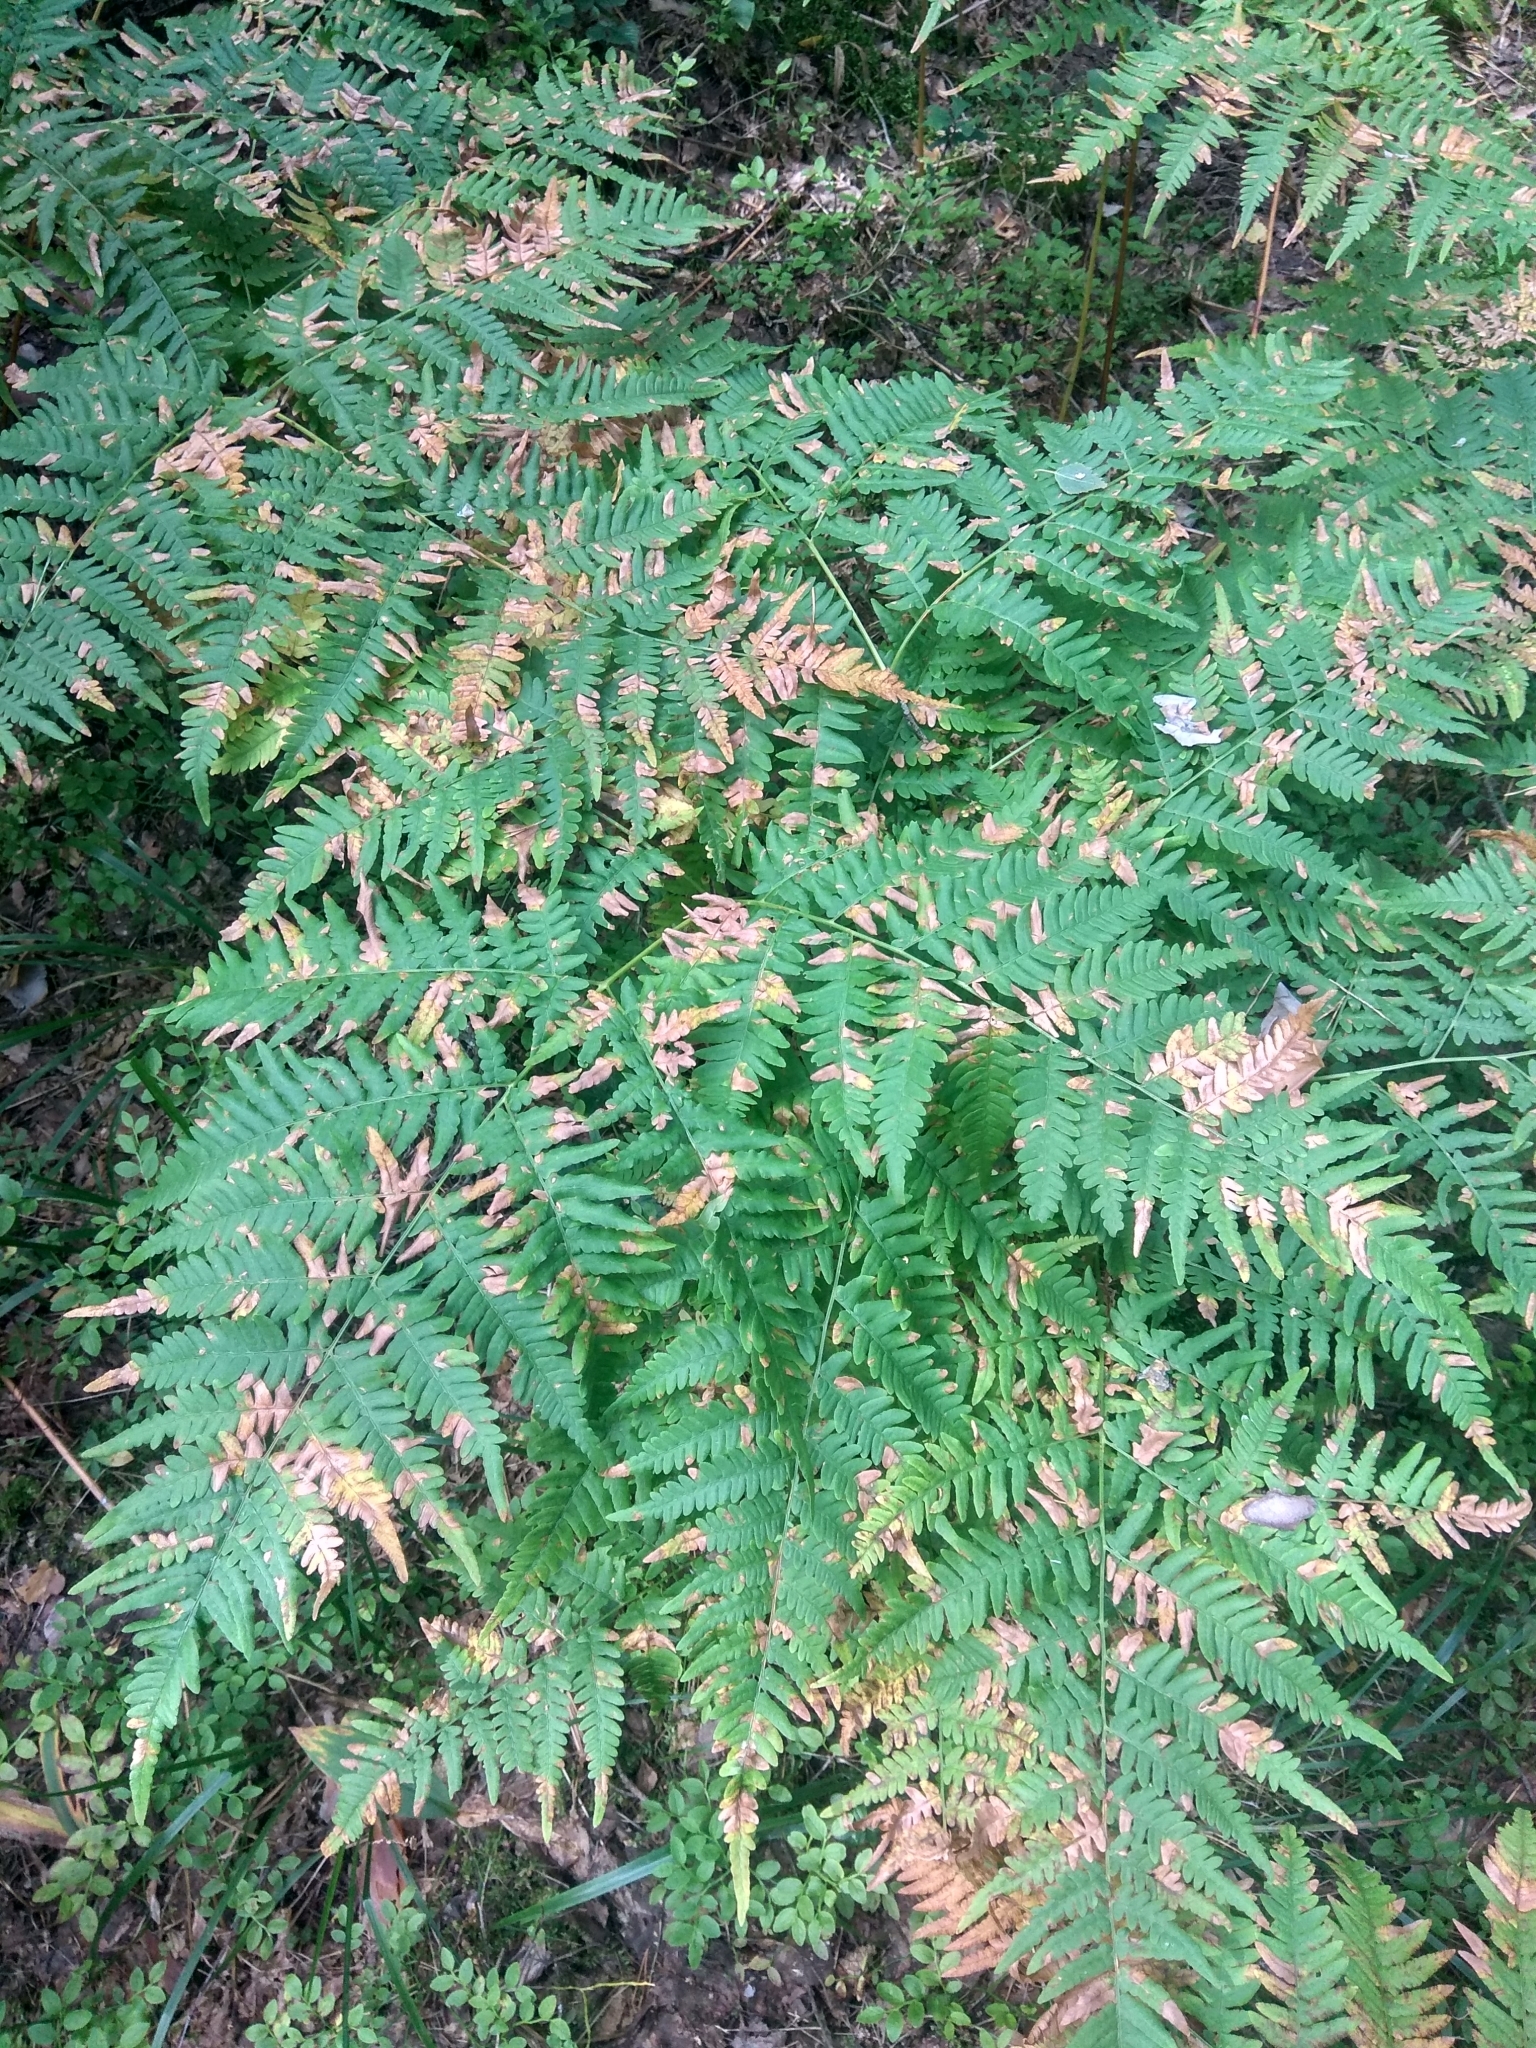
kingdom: Plantae
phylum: Tracheophyta
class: Polypodiopsida
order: Polypodiales
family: Dennstaedtiaceae
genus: Pteridium
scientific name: Pteridium aquilinum
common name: Bracken
